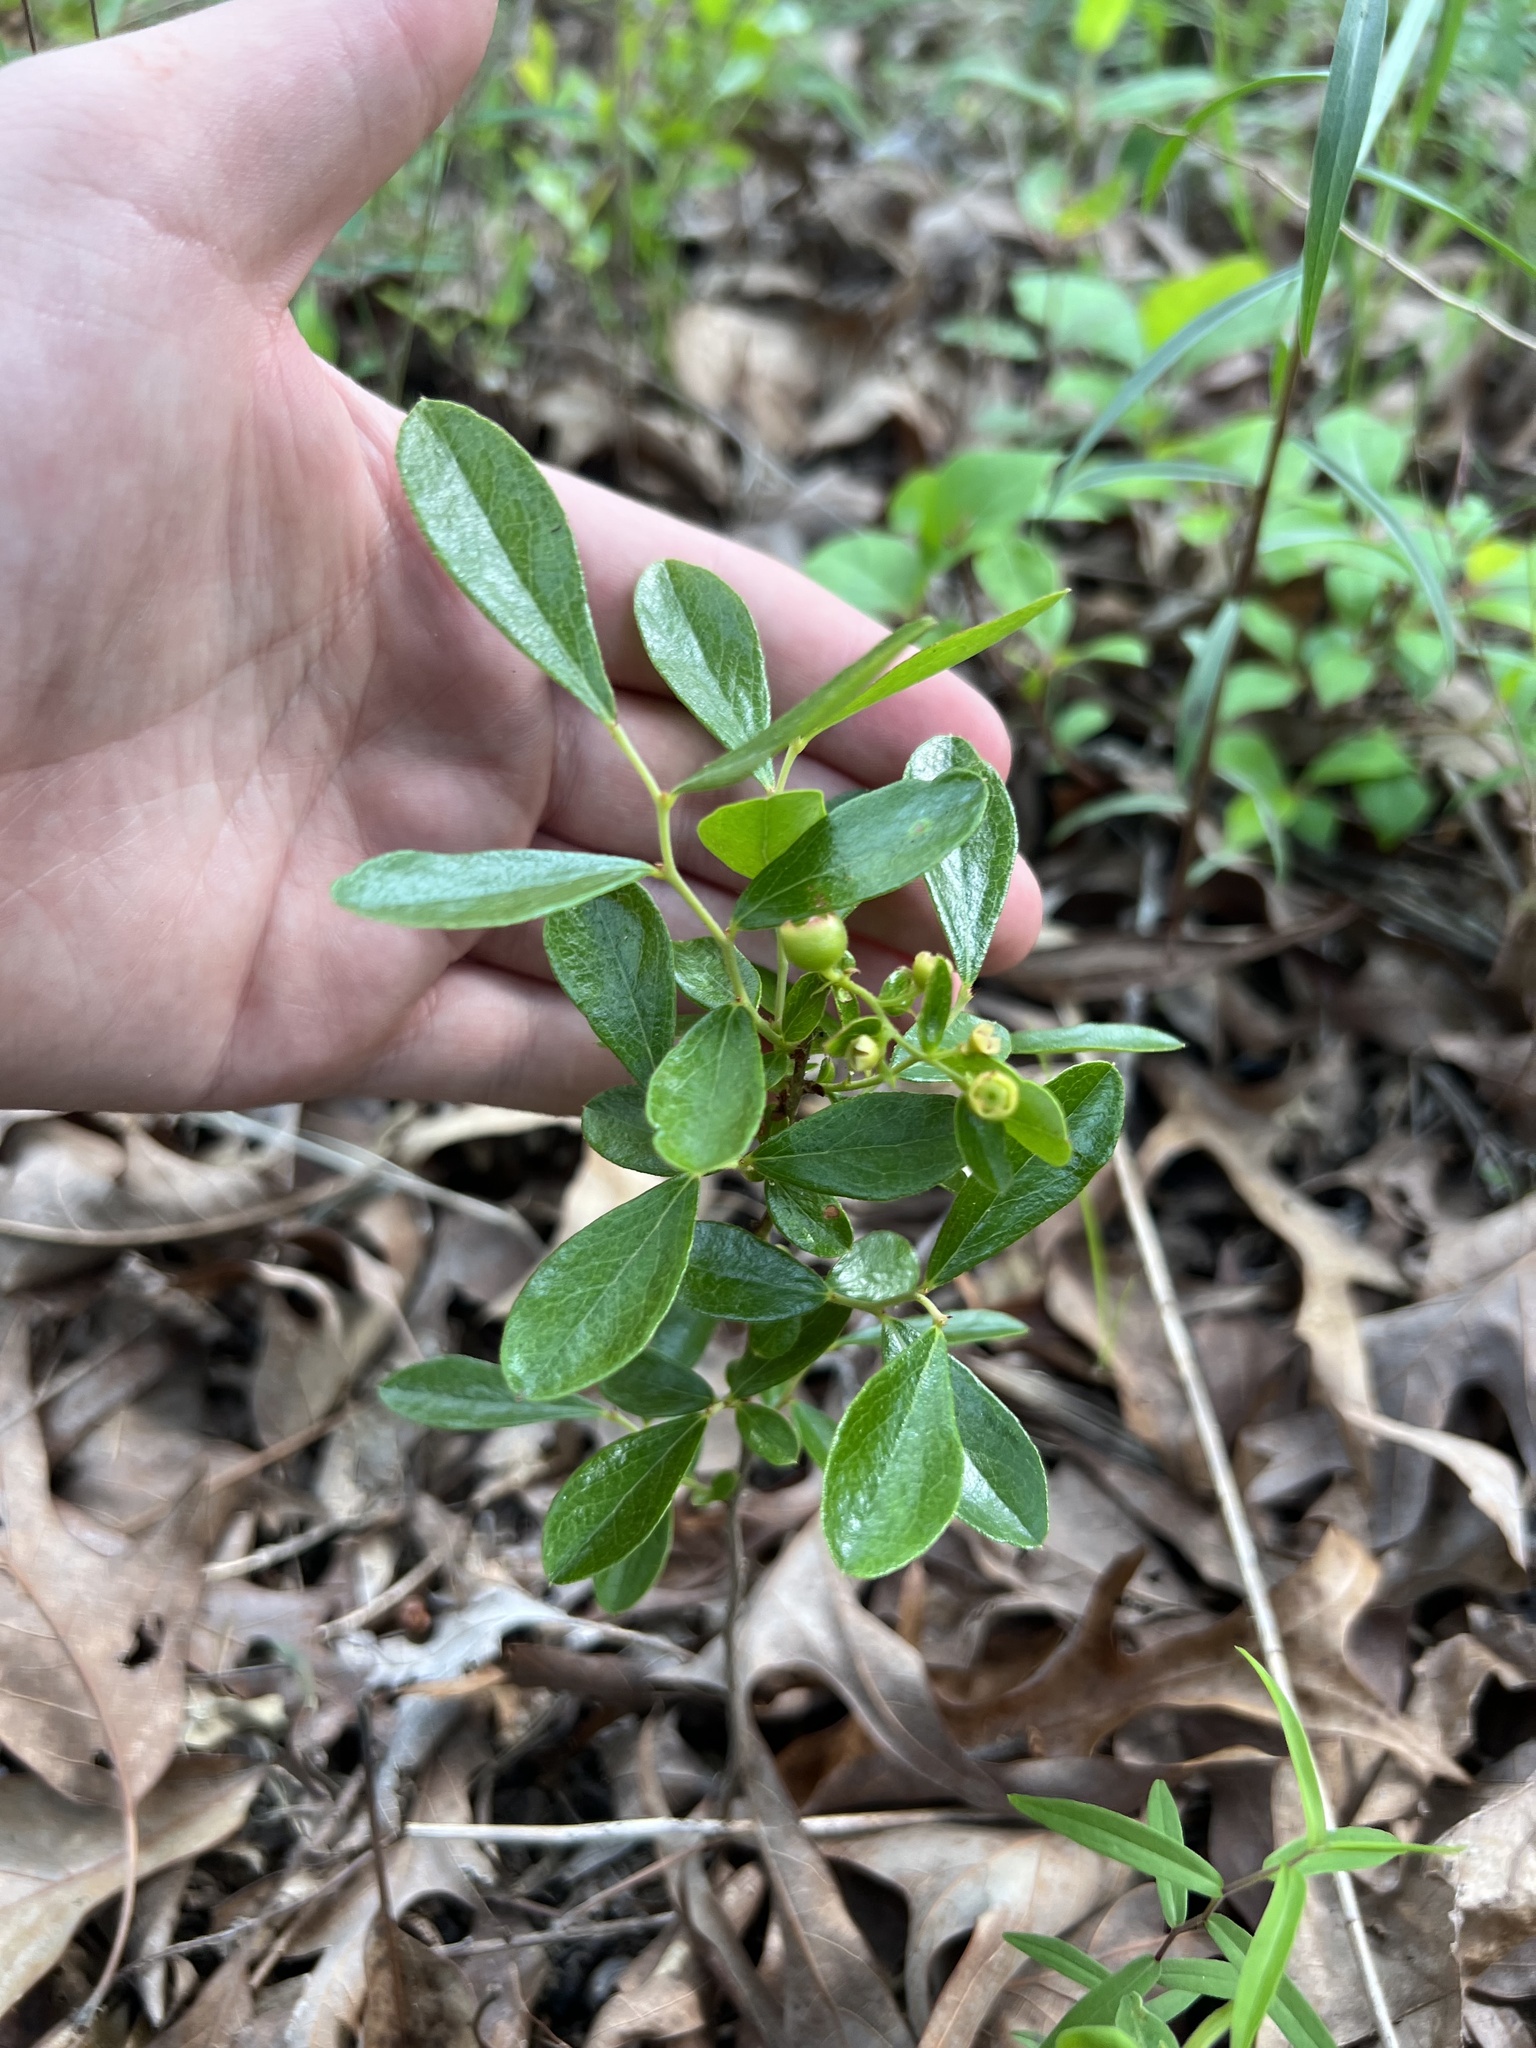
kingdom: Plantae
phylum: Tracheophyta
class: Magnoliopsida
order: Ericales
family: Ericaceae
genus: Gaylussacia
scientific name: Gaylussacia dumosa
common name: Dwarf huckleberry
